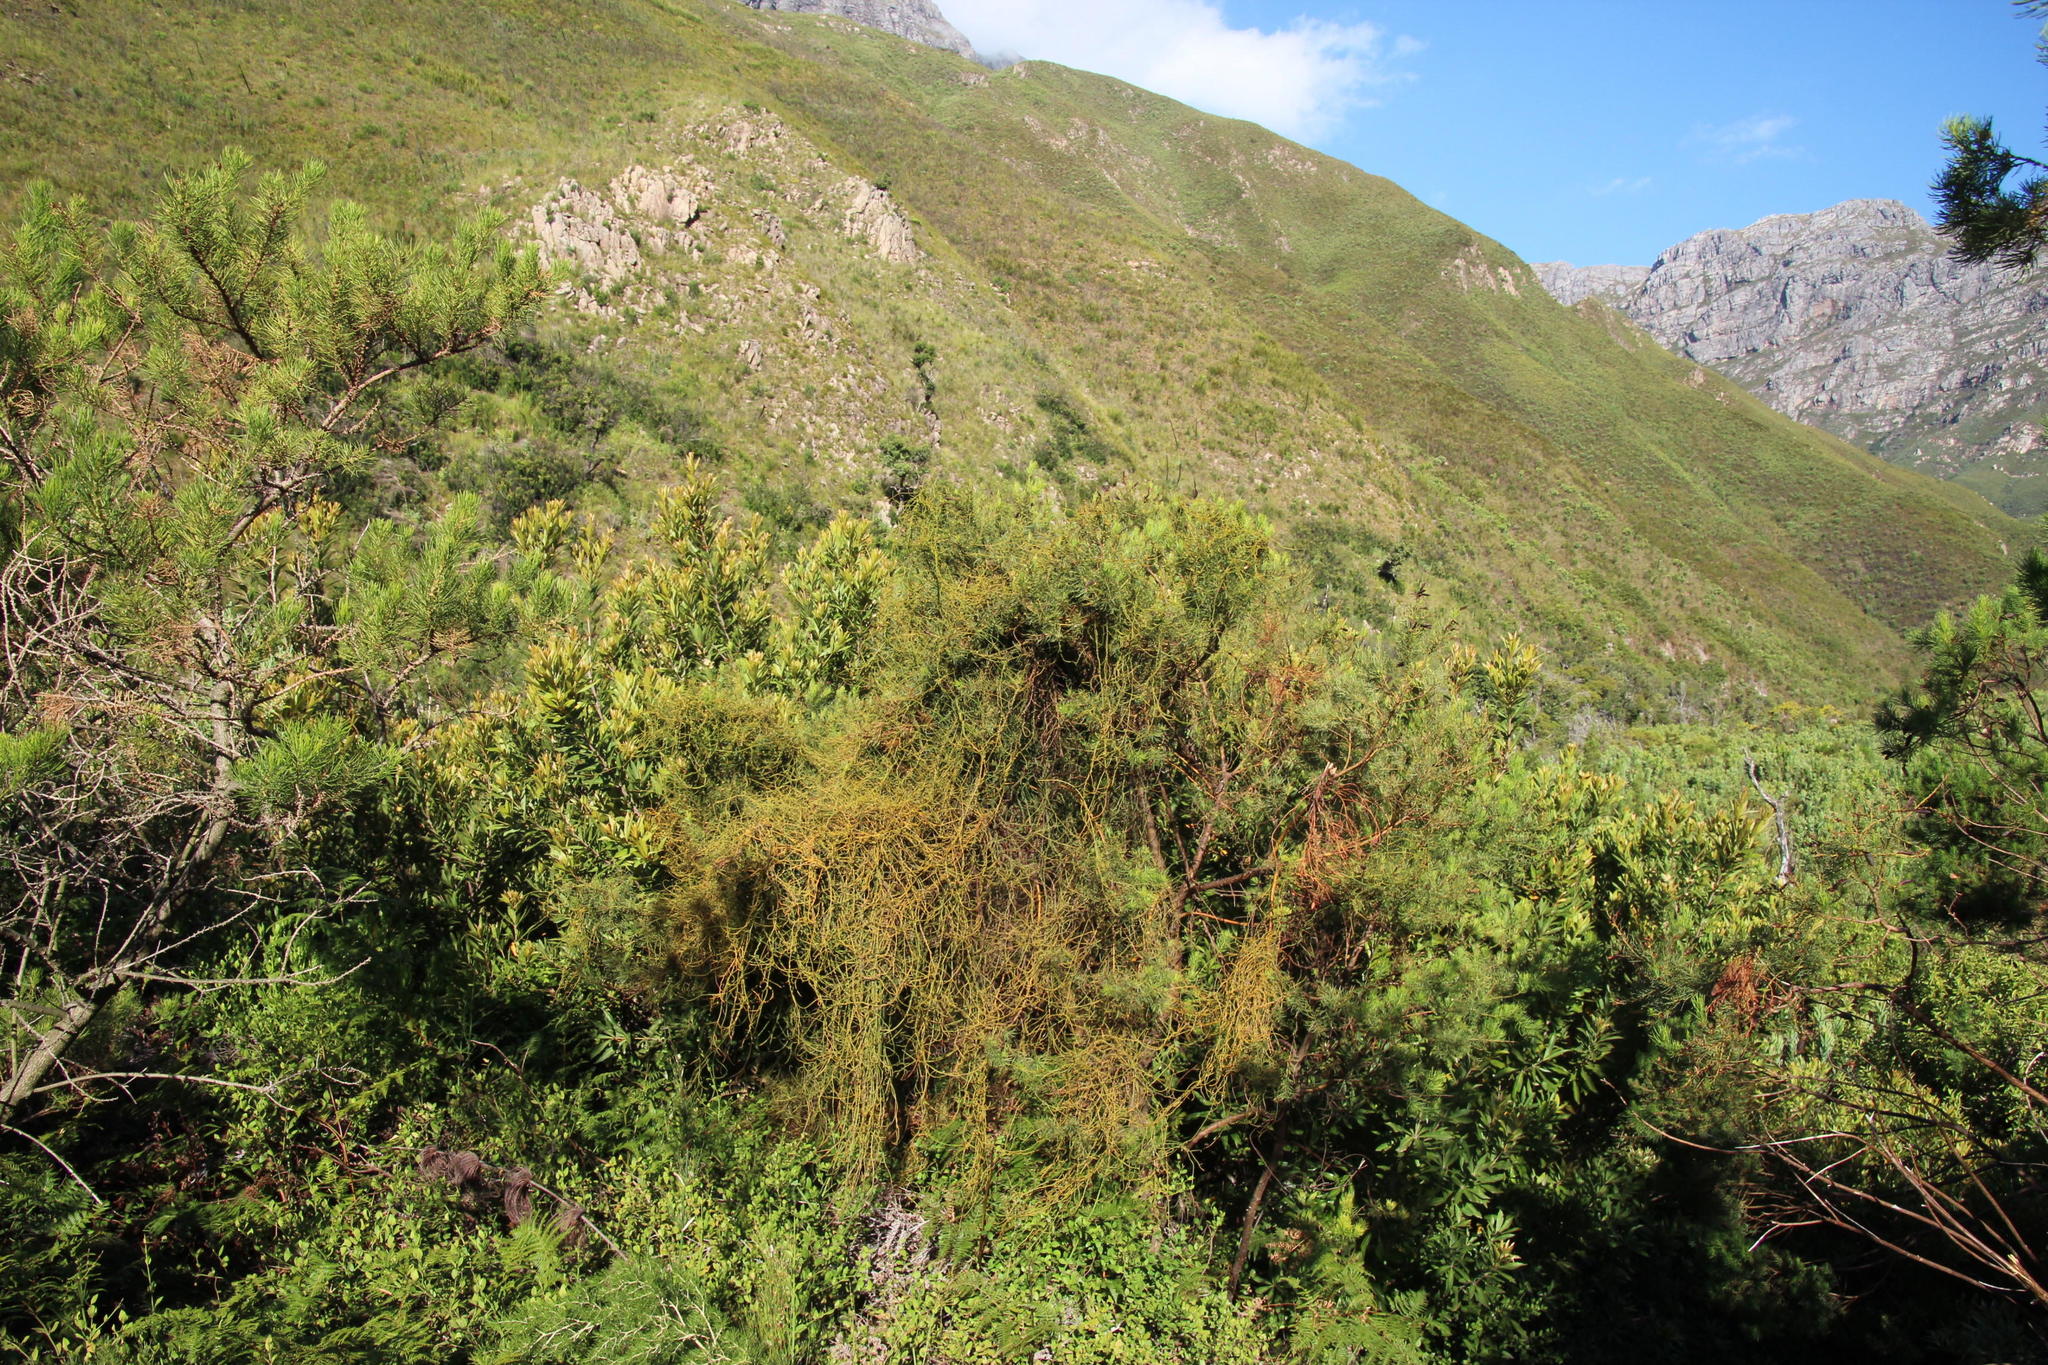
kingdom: Plantae
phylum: Tracheophyta
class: Magnoliopsida
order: Laurales
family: Lauraceae
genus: Cassytha
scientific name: Cassytha ciliolata
